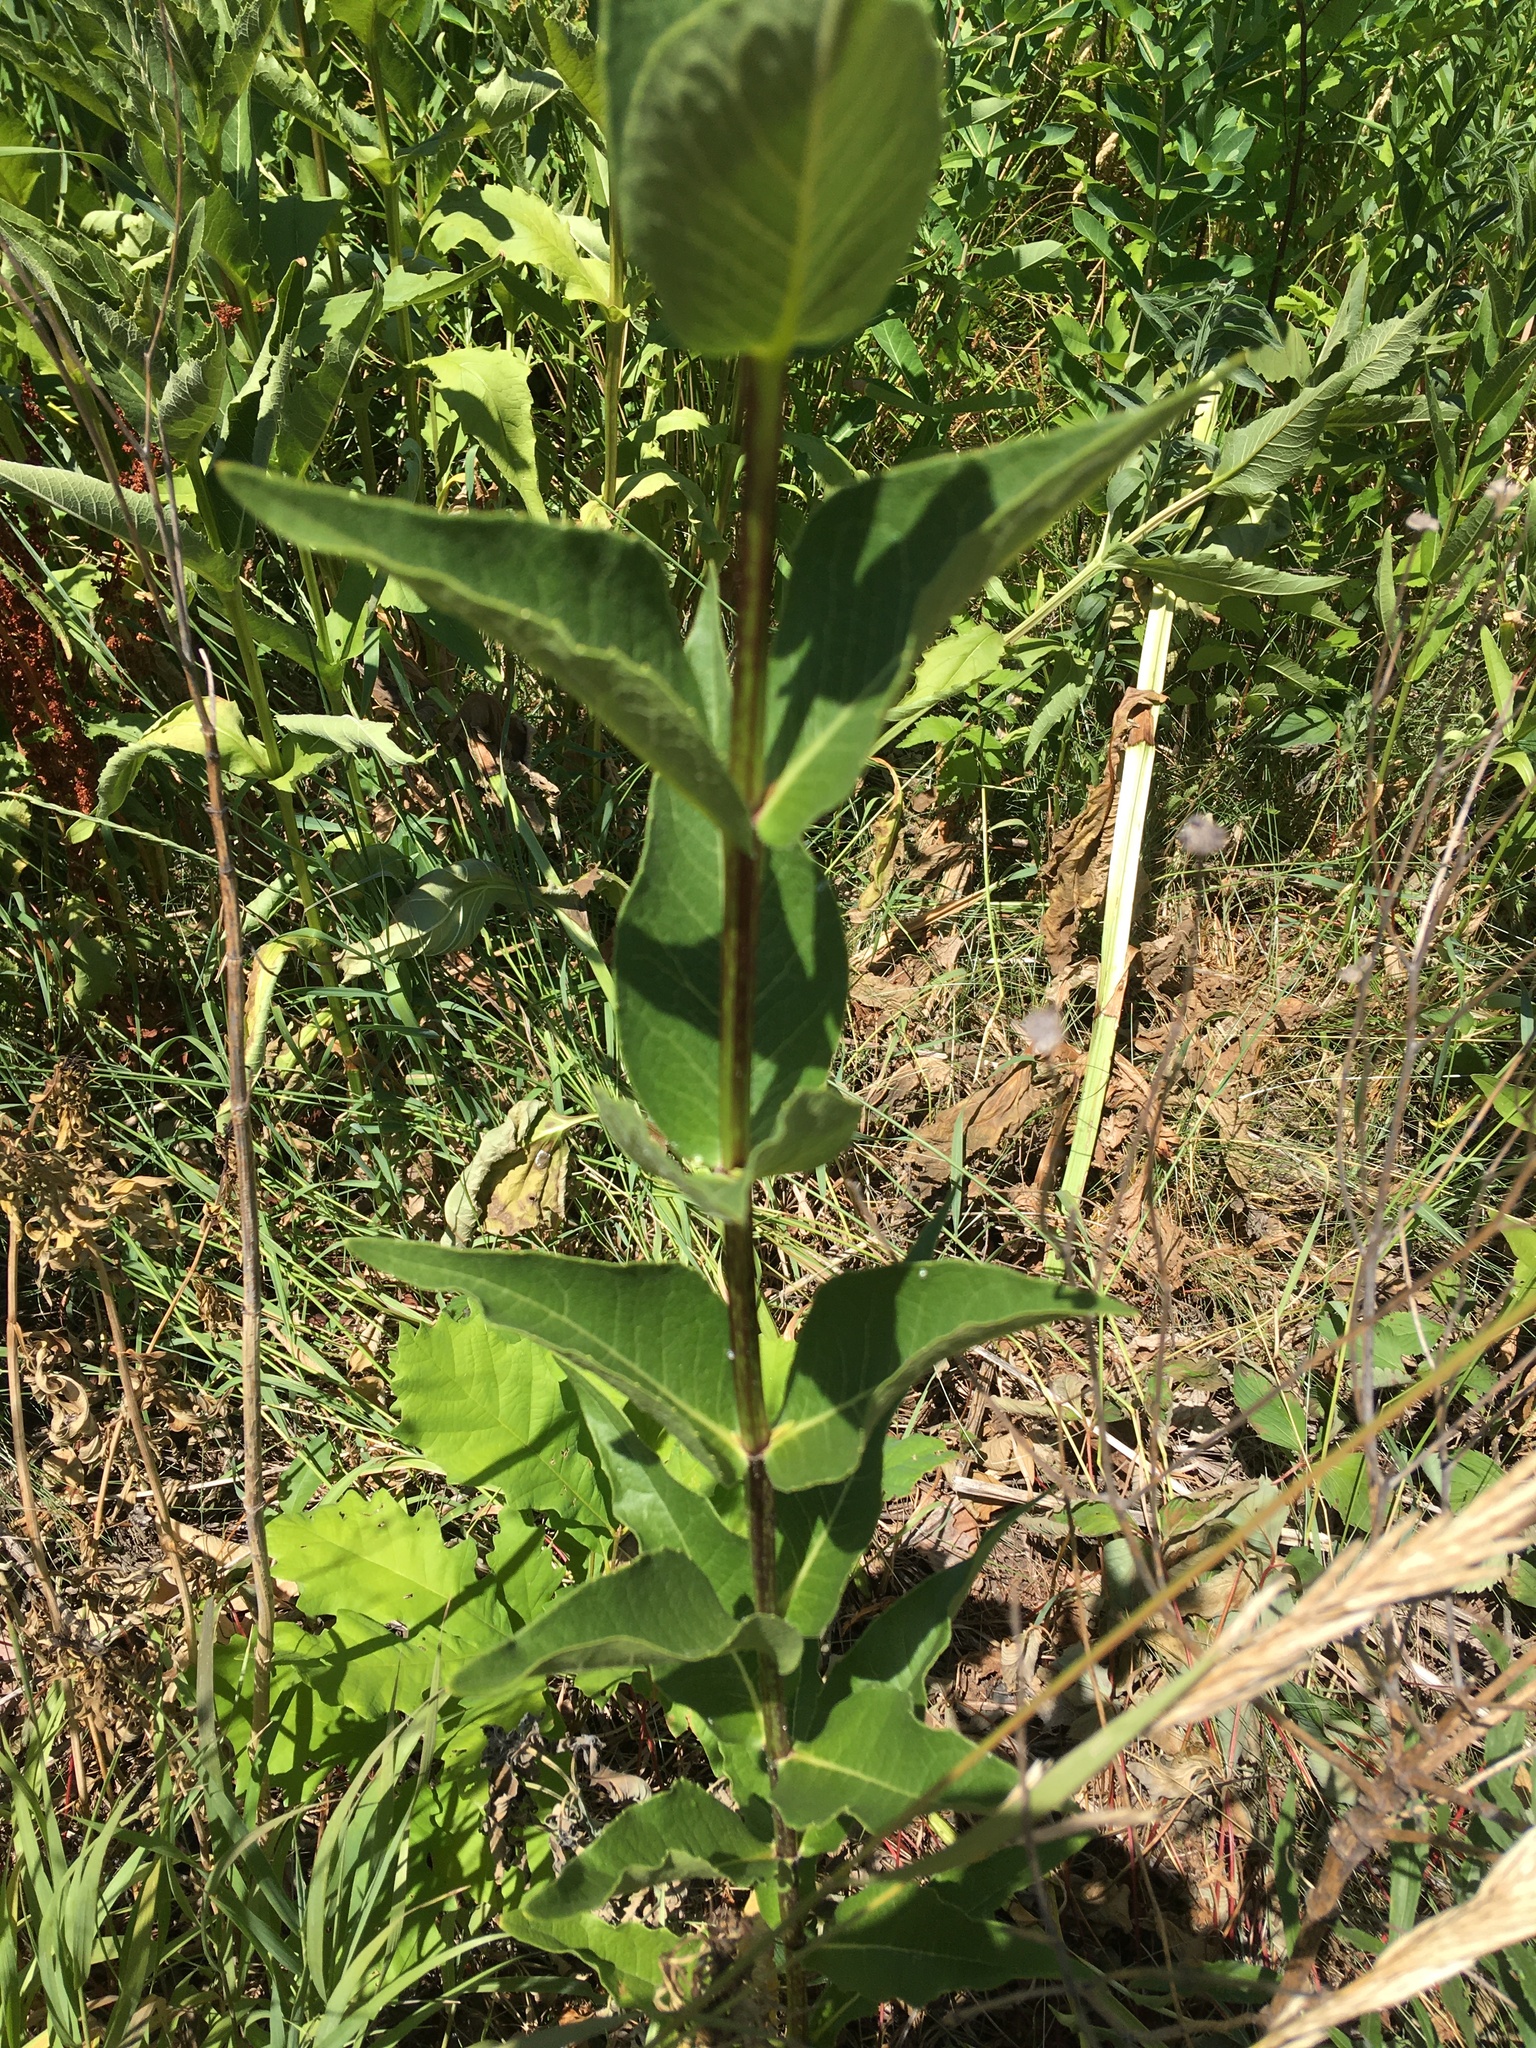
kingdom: Plantae
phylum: Tracheophyta
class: Magnoliopsida
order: Asterales
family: Asteraceae
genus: Silphium
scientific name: Silphium integrifolium
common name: Whole-leaf rosinweed
